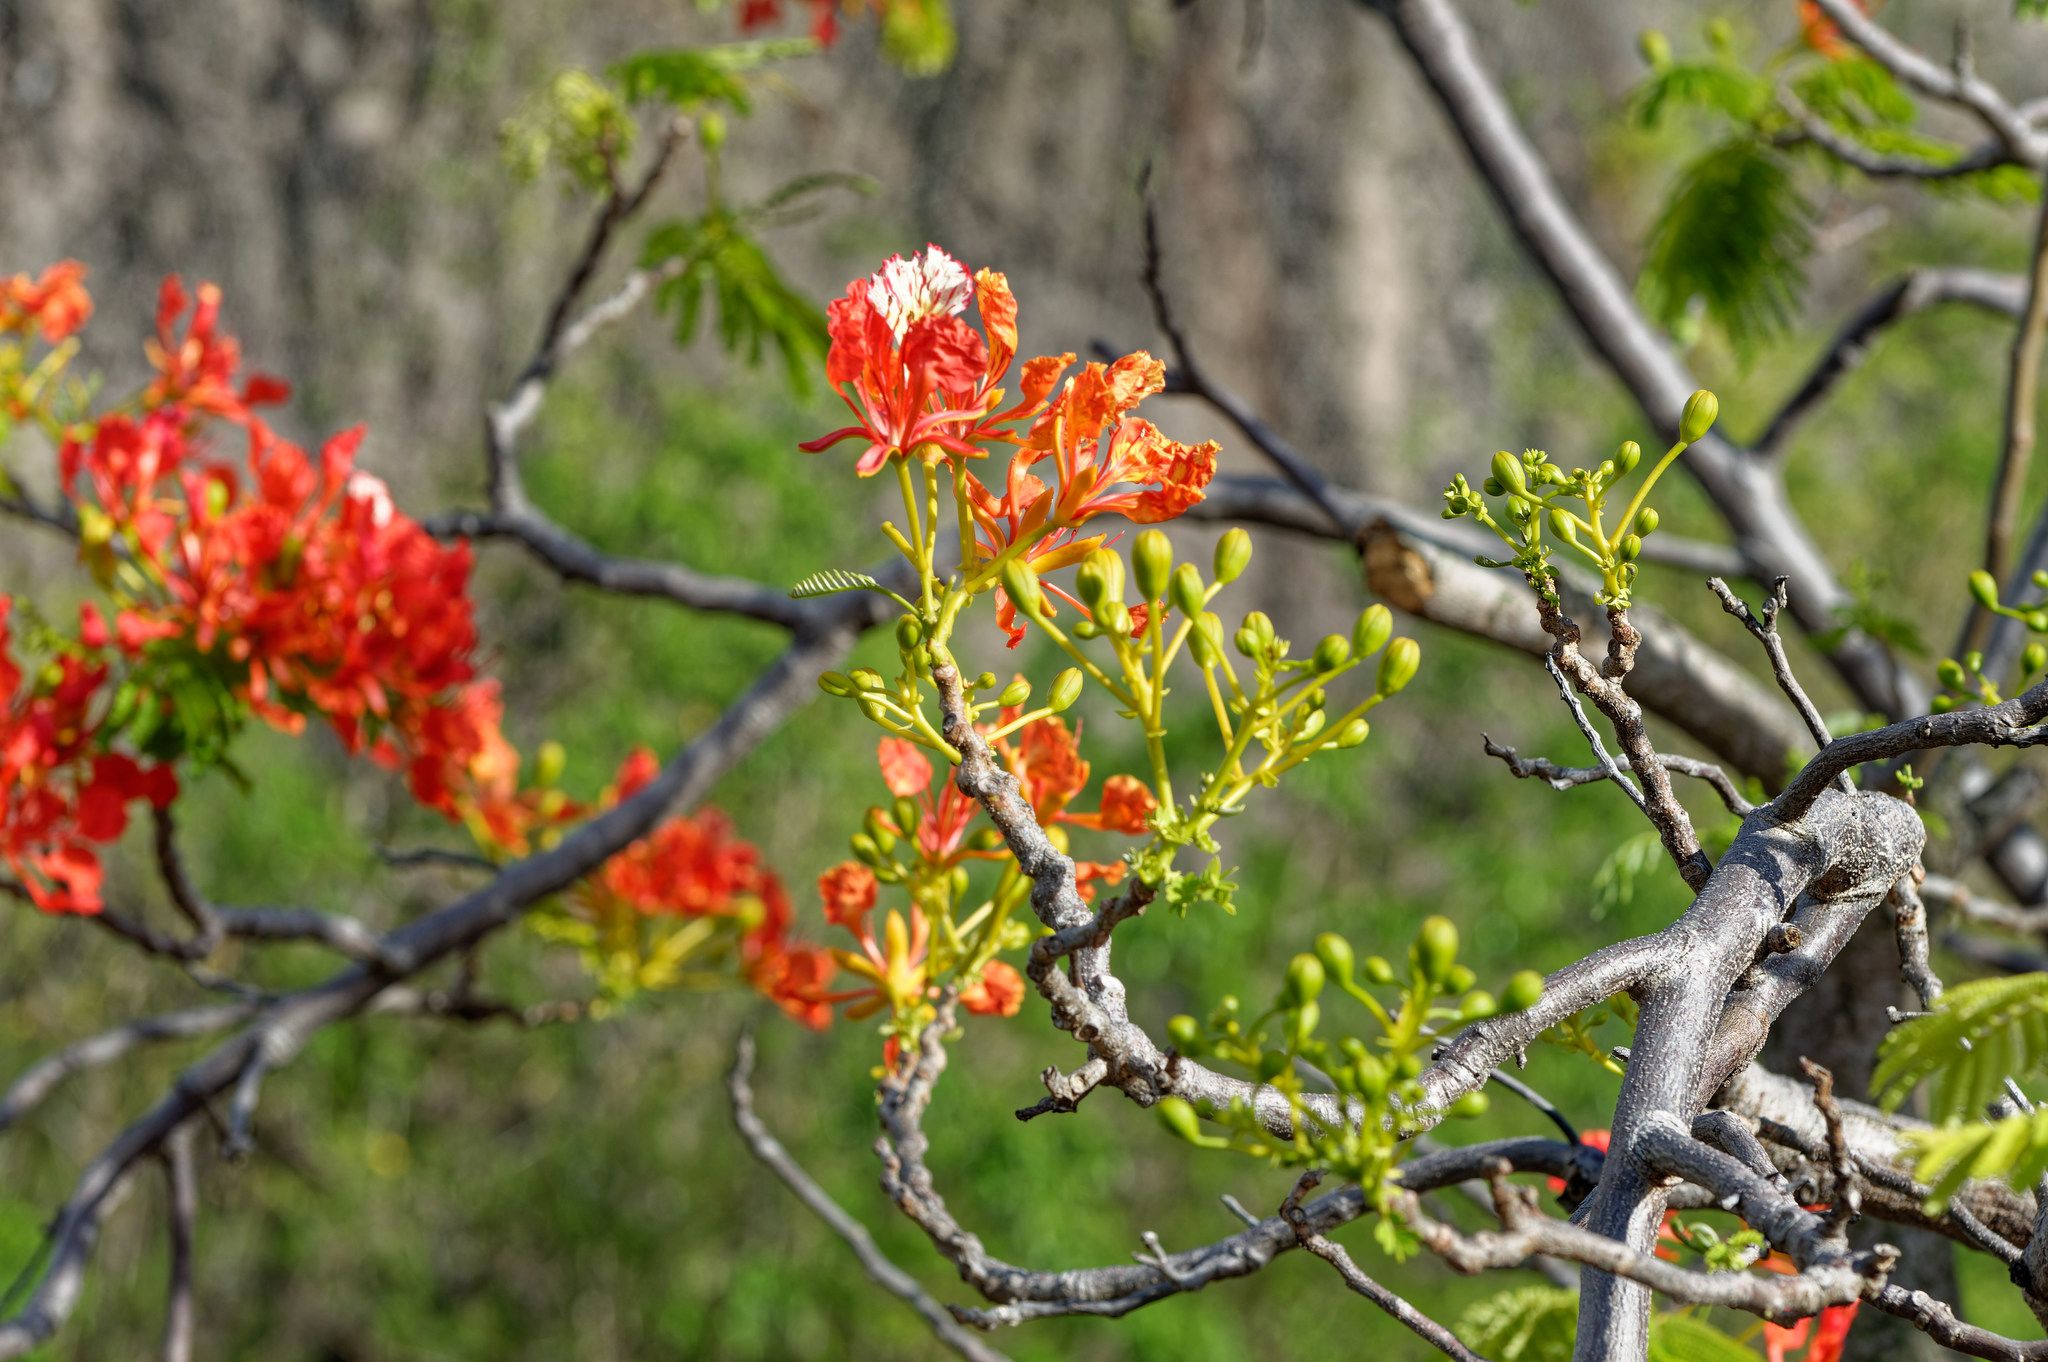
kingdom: Plantae
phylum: Tracheophyta
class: Magnoliopsida
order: Fabales
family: Fabaceae
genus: Delonix
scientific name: Delonix regia
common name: Royal poinciana
